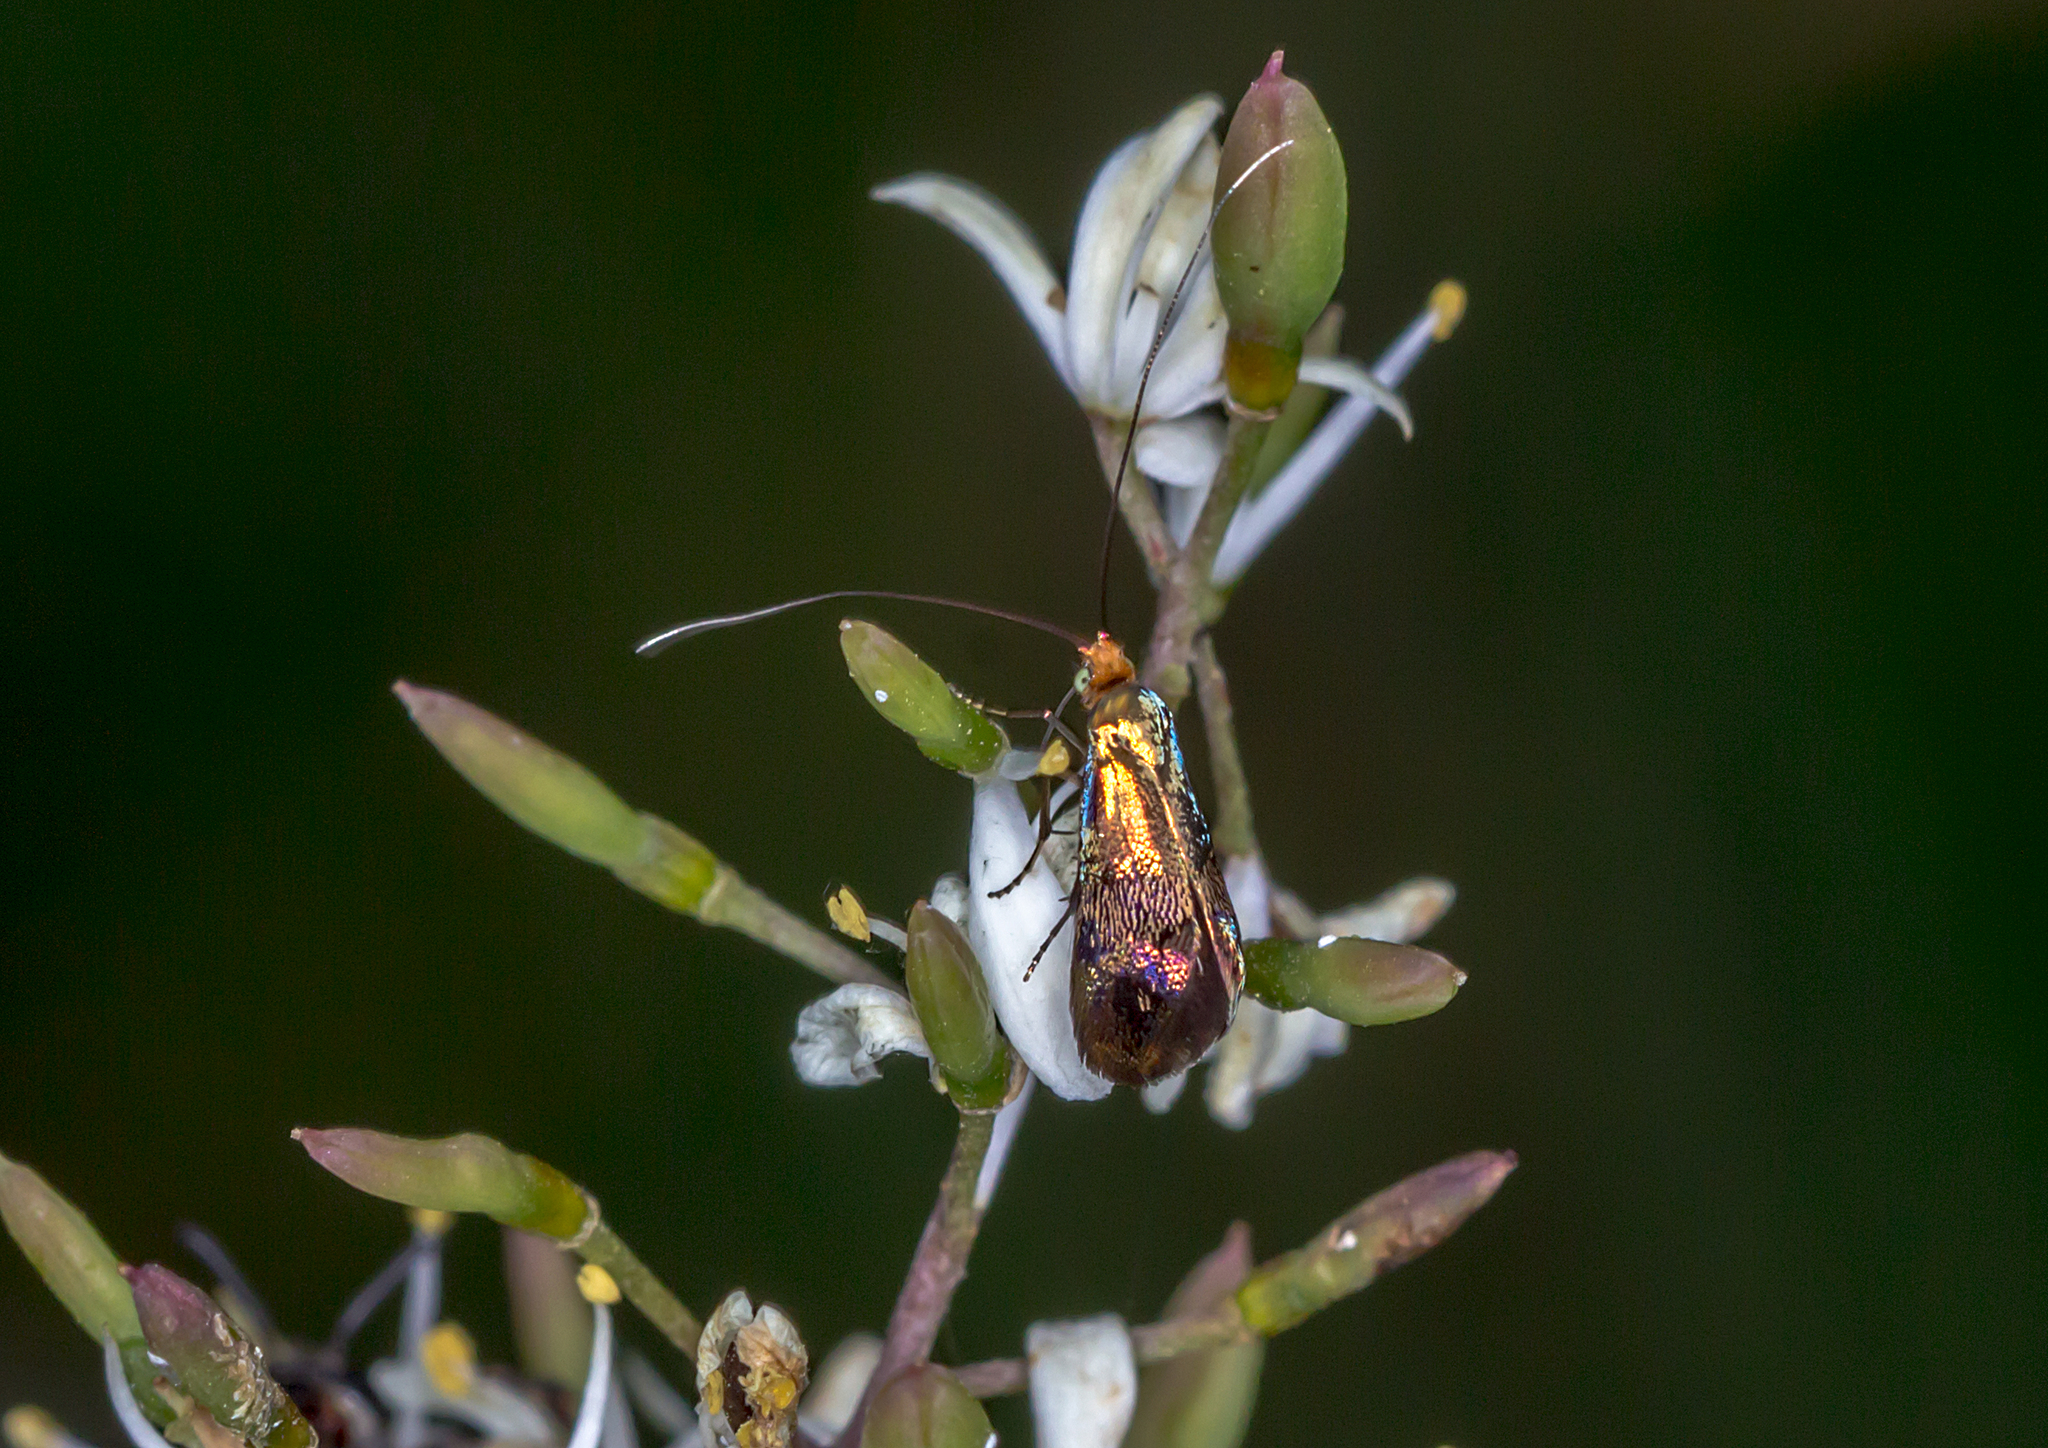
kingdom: Animalia
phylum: Arthropoda
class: Insecta
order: Lepidoptera
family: Adelidae
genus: Nemophora
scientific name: Nemophora laurella
